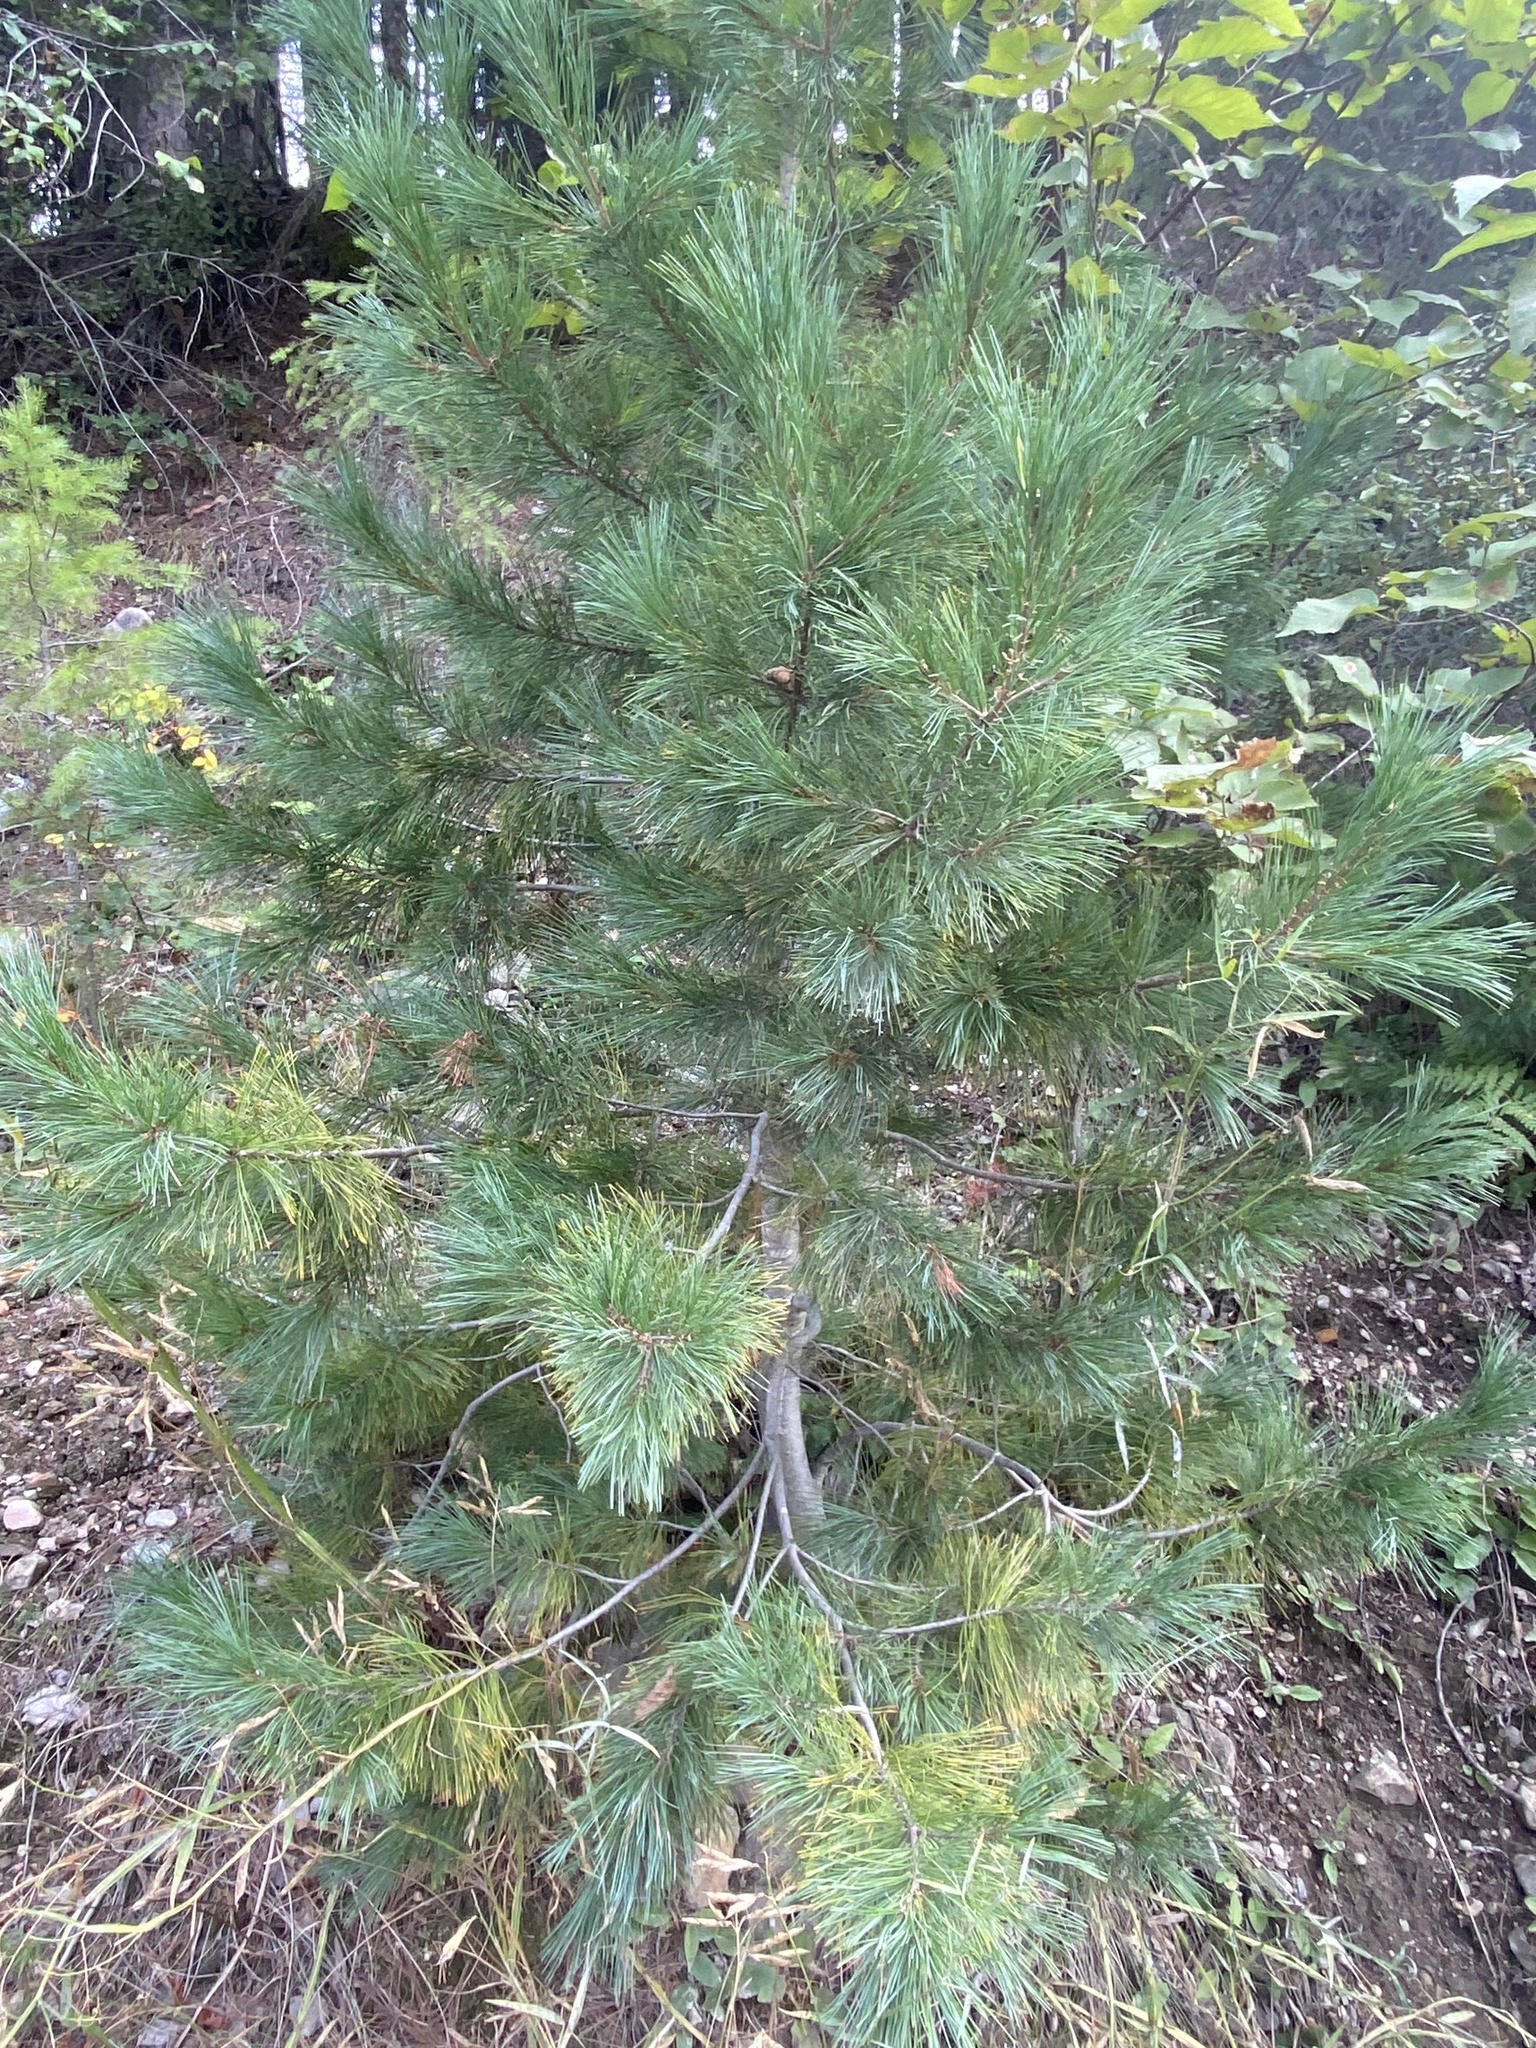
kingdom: Plantae
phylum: Tracheophyta
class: Pinopsida
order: Pinales
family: Pinaceae
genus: Pinus
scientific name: Pinus monticola
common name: Western white pine
